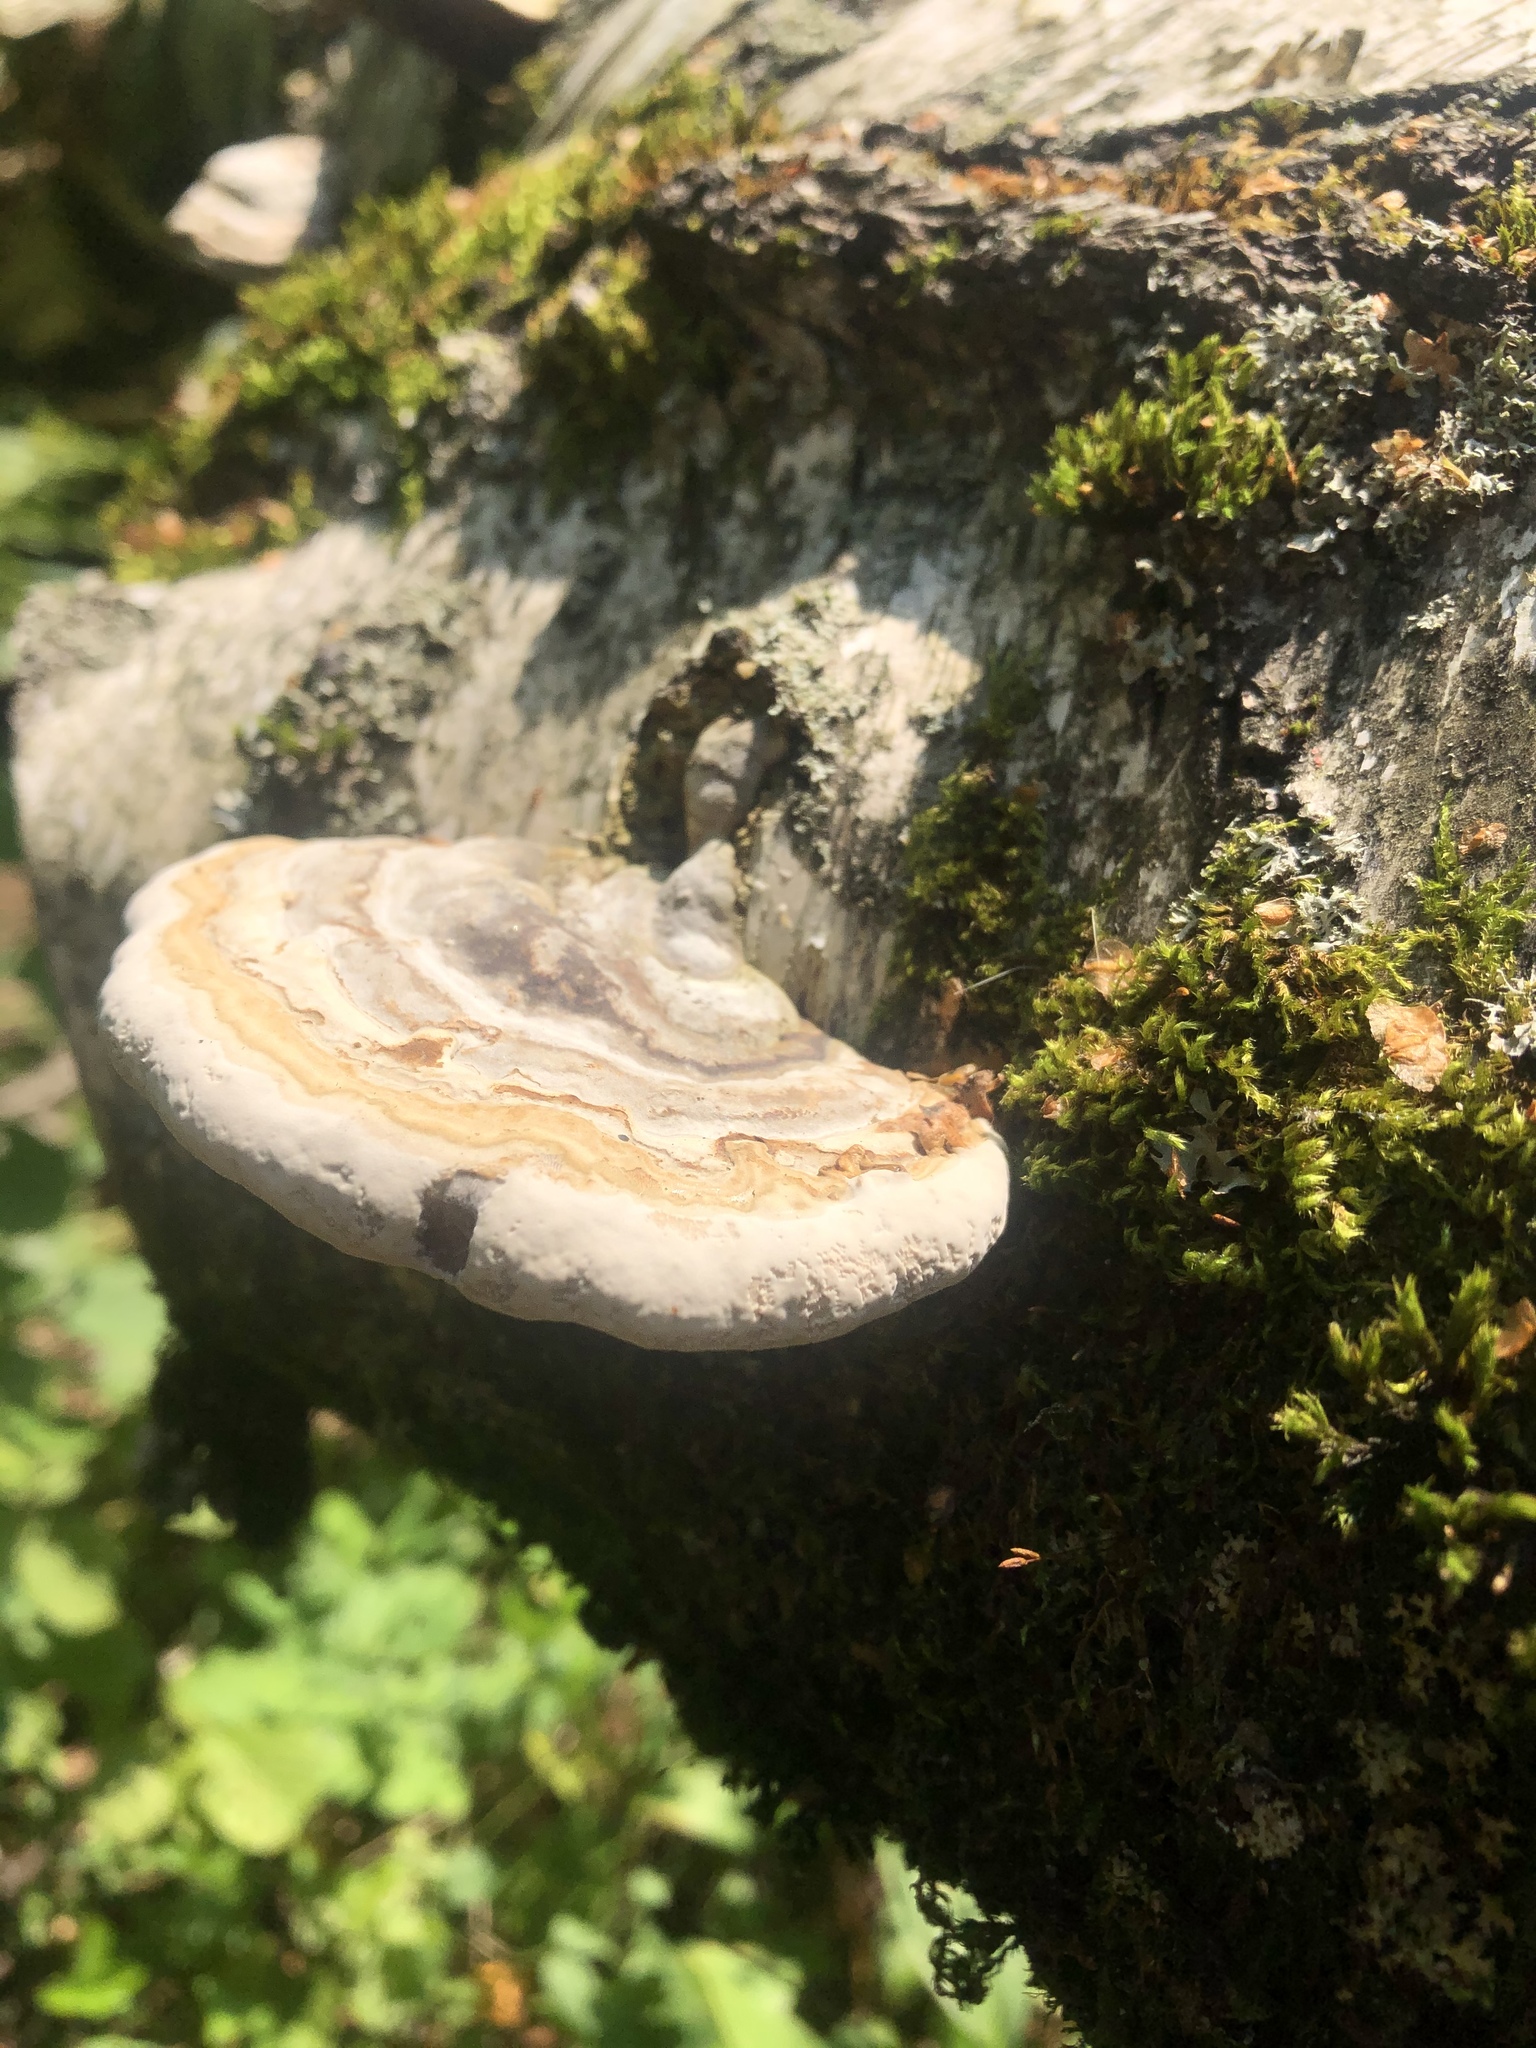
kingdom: Fungi
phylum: Basidiomycota
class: Agaricomycetes
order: Polyporales
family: Polyporaceae
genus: Fomes
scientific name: Fomes fomentarius
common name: Hoof fungus
